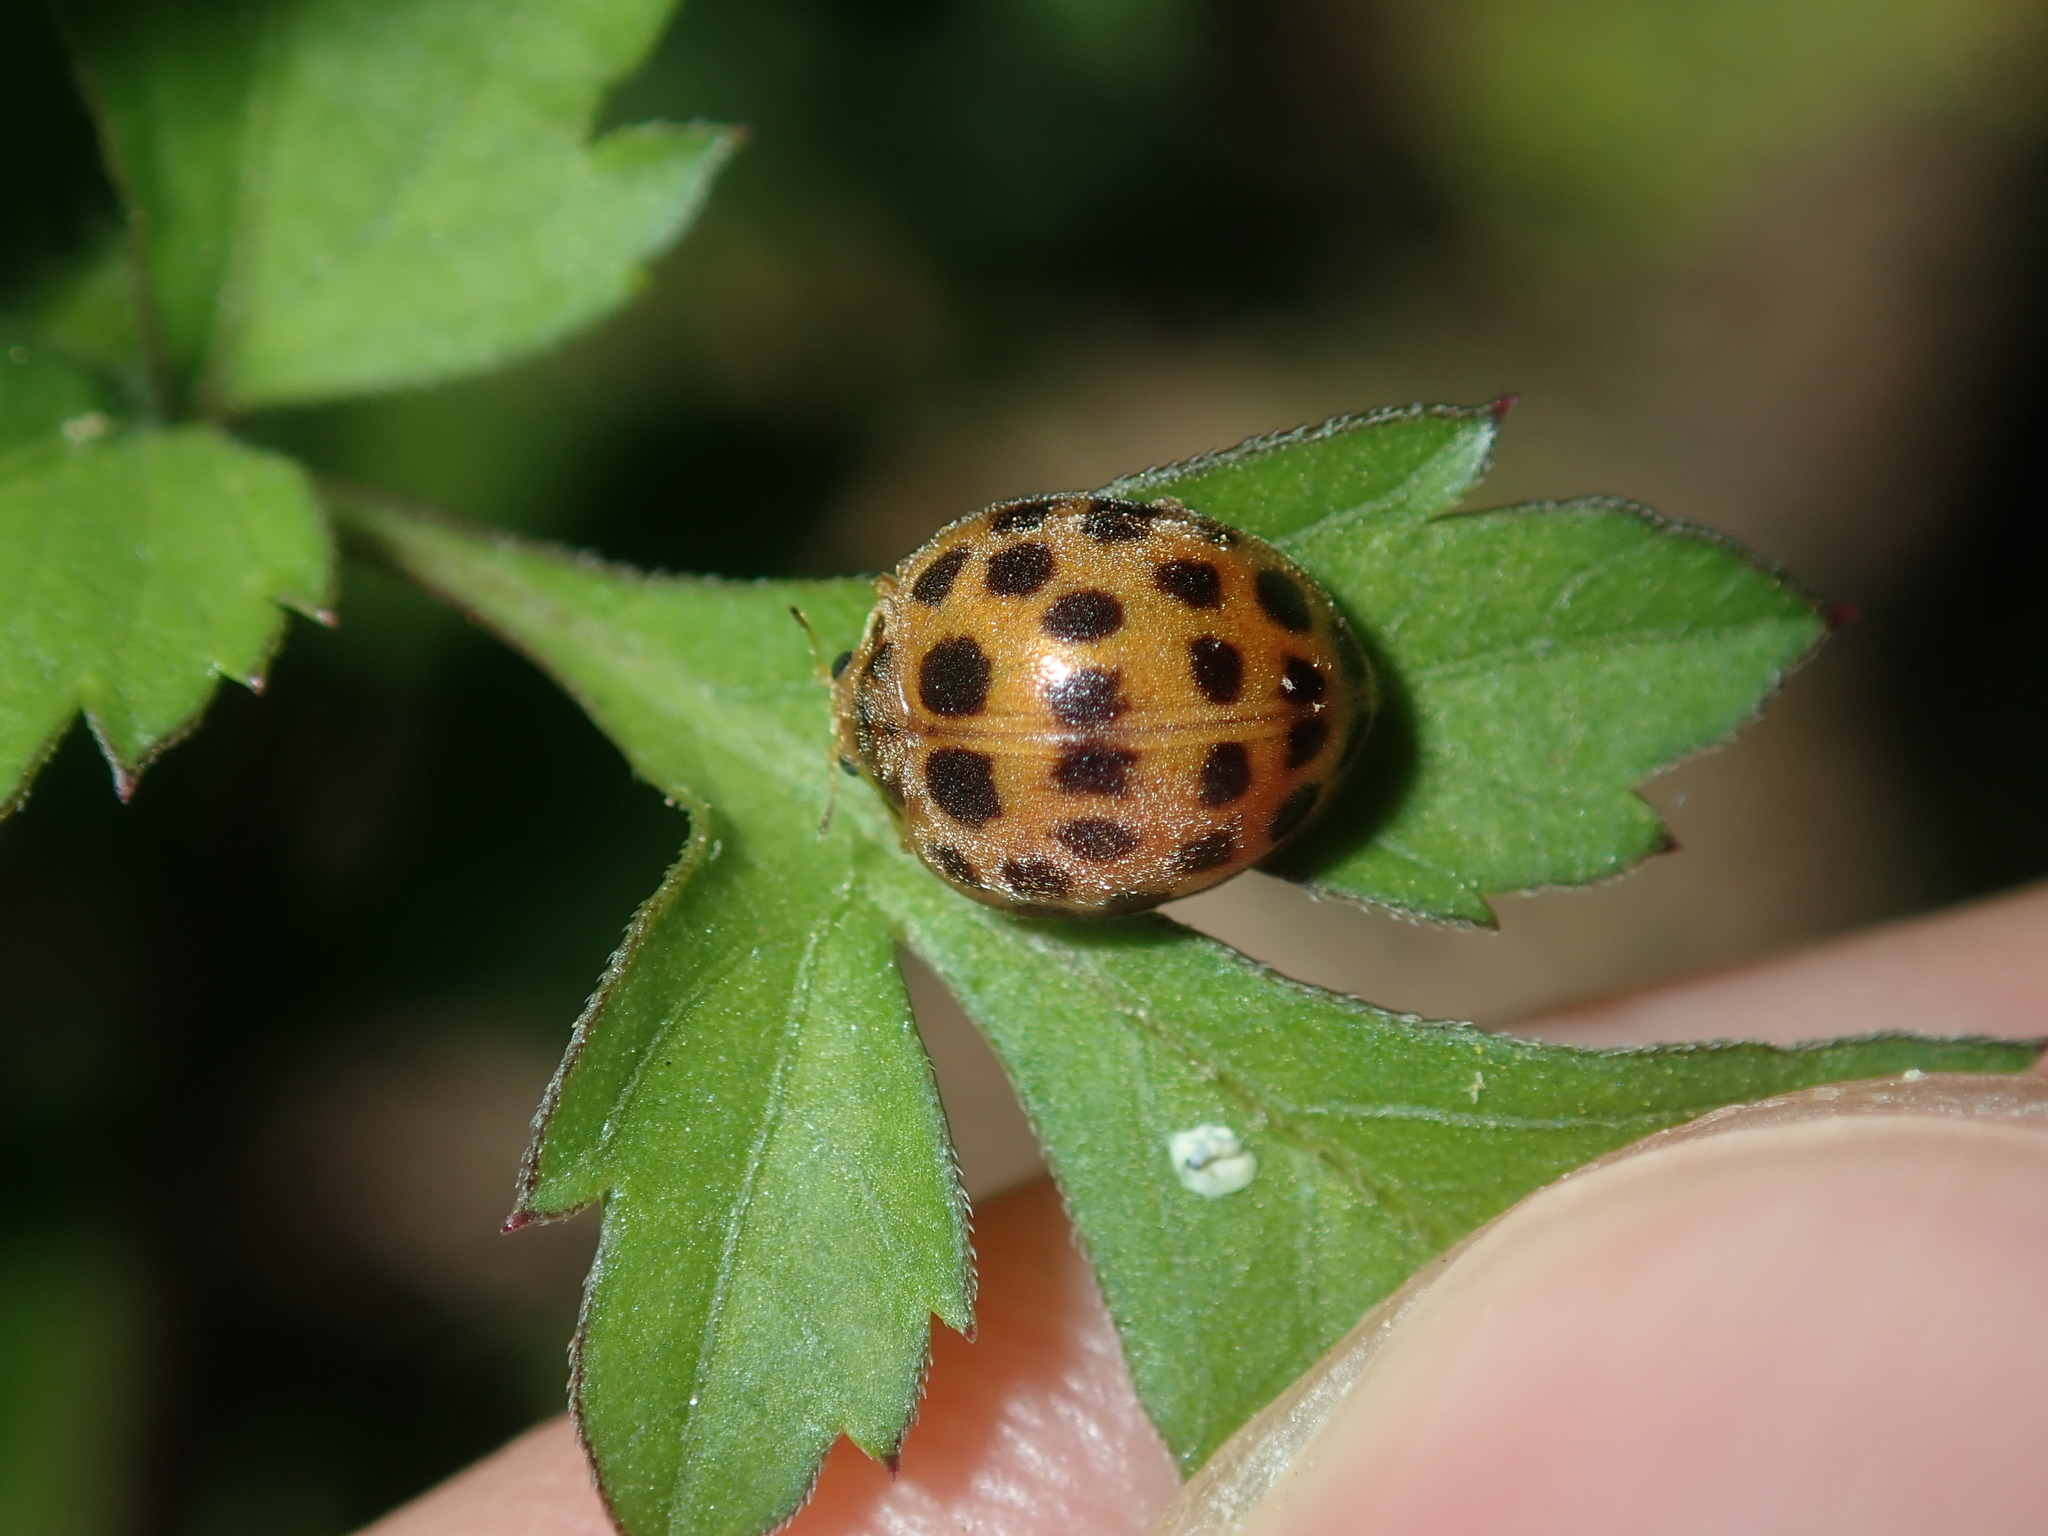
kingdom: Animalia
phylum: Arthropoda
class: Insecta
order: Coleoptera
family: Coccinellidae
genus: Henosepilachna
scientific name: Henosepilachna vigintioctopunctata
